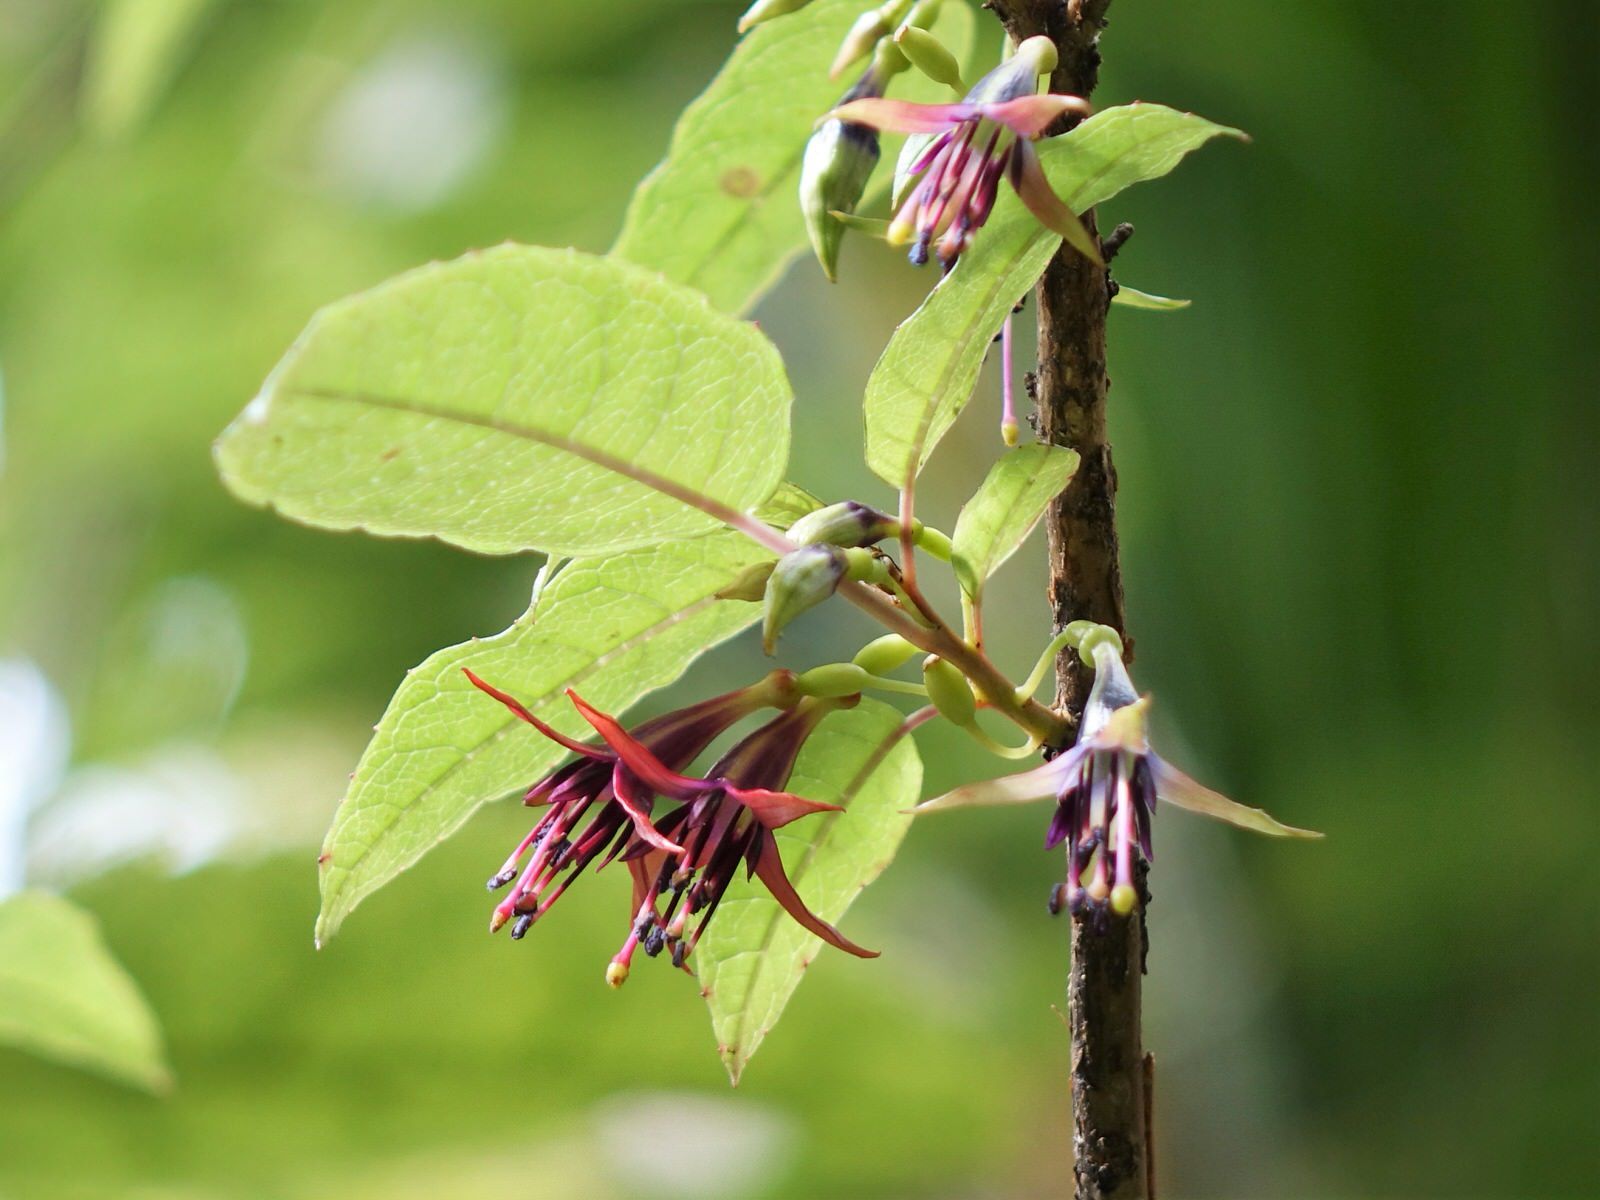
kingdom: Plantae
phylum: Tracheophyta
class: Magnoliopsida
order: Myrtales
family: Onagraceae
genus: Fuchsia
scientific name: Fuchsia excorticata
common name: Tree fuchsia
